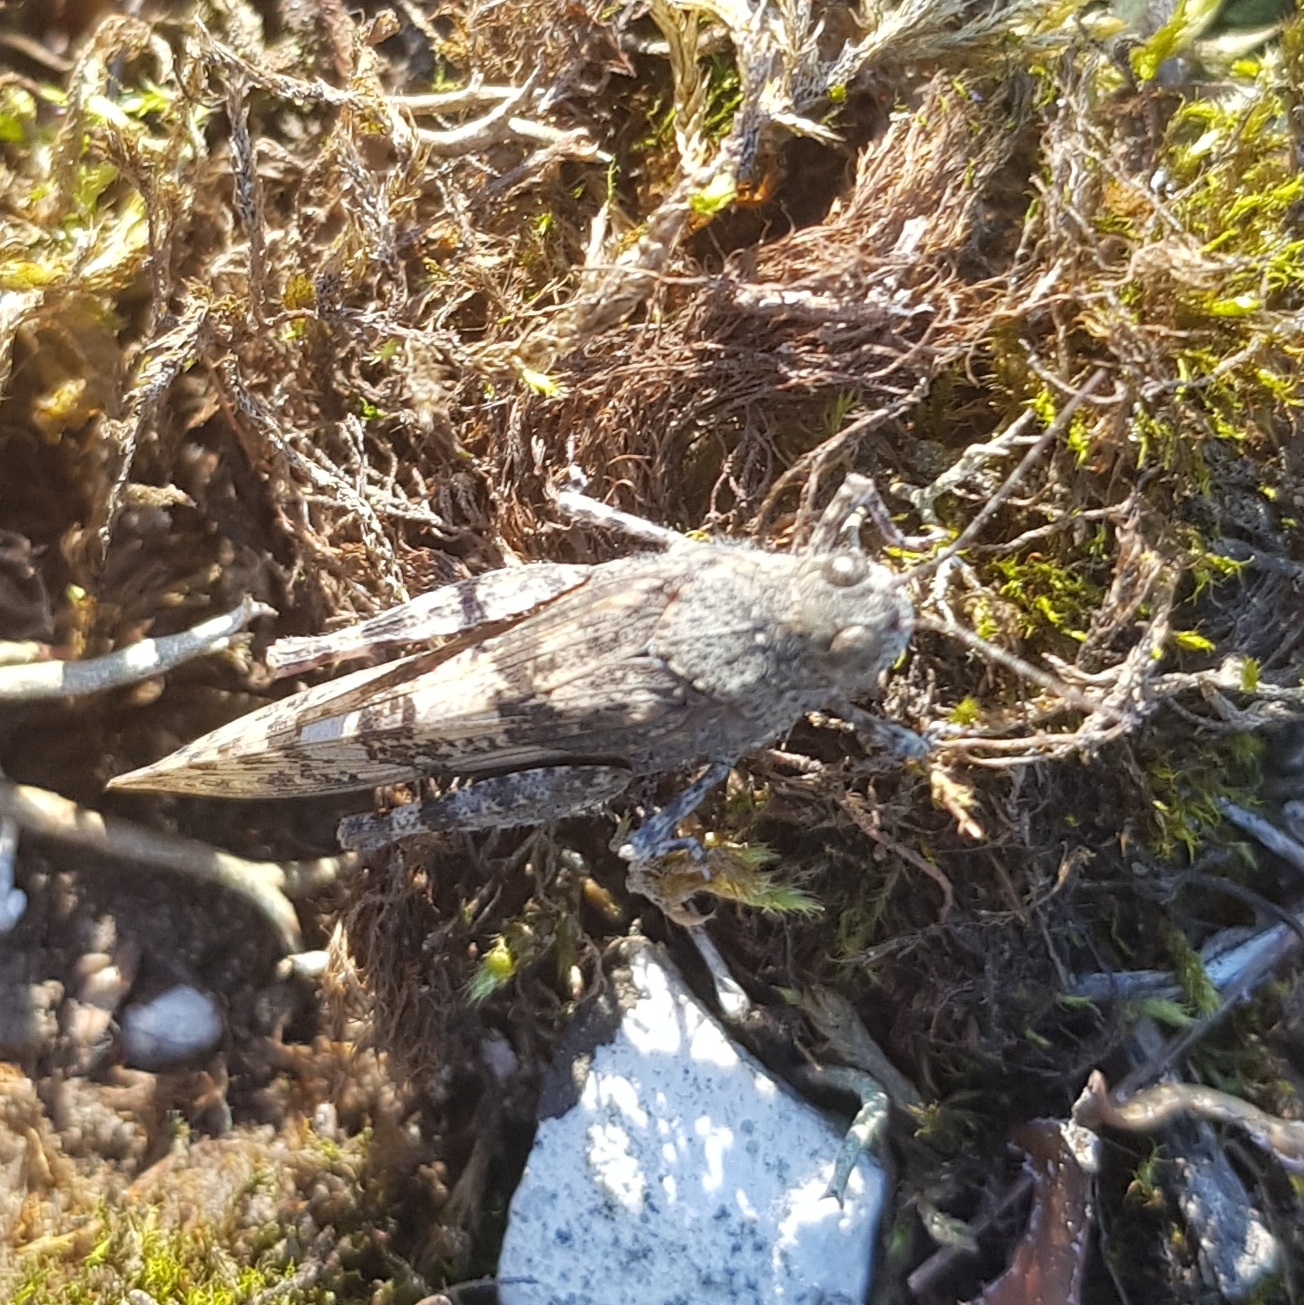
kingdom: Animalia
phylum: Arthropoda
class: Insecta
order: Orthoptera
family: Acrididae
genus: Sphingonotus
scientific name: Sphingonotus caerulans
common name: Blue-winged locust
